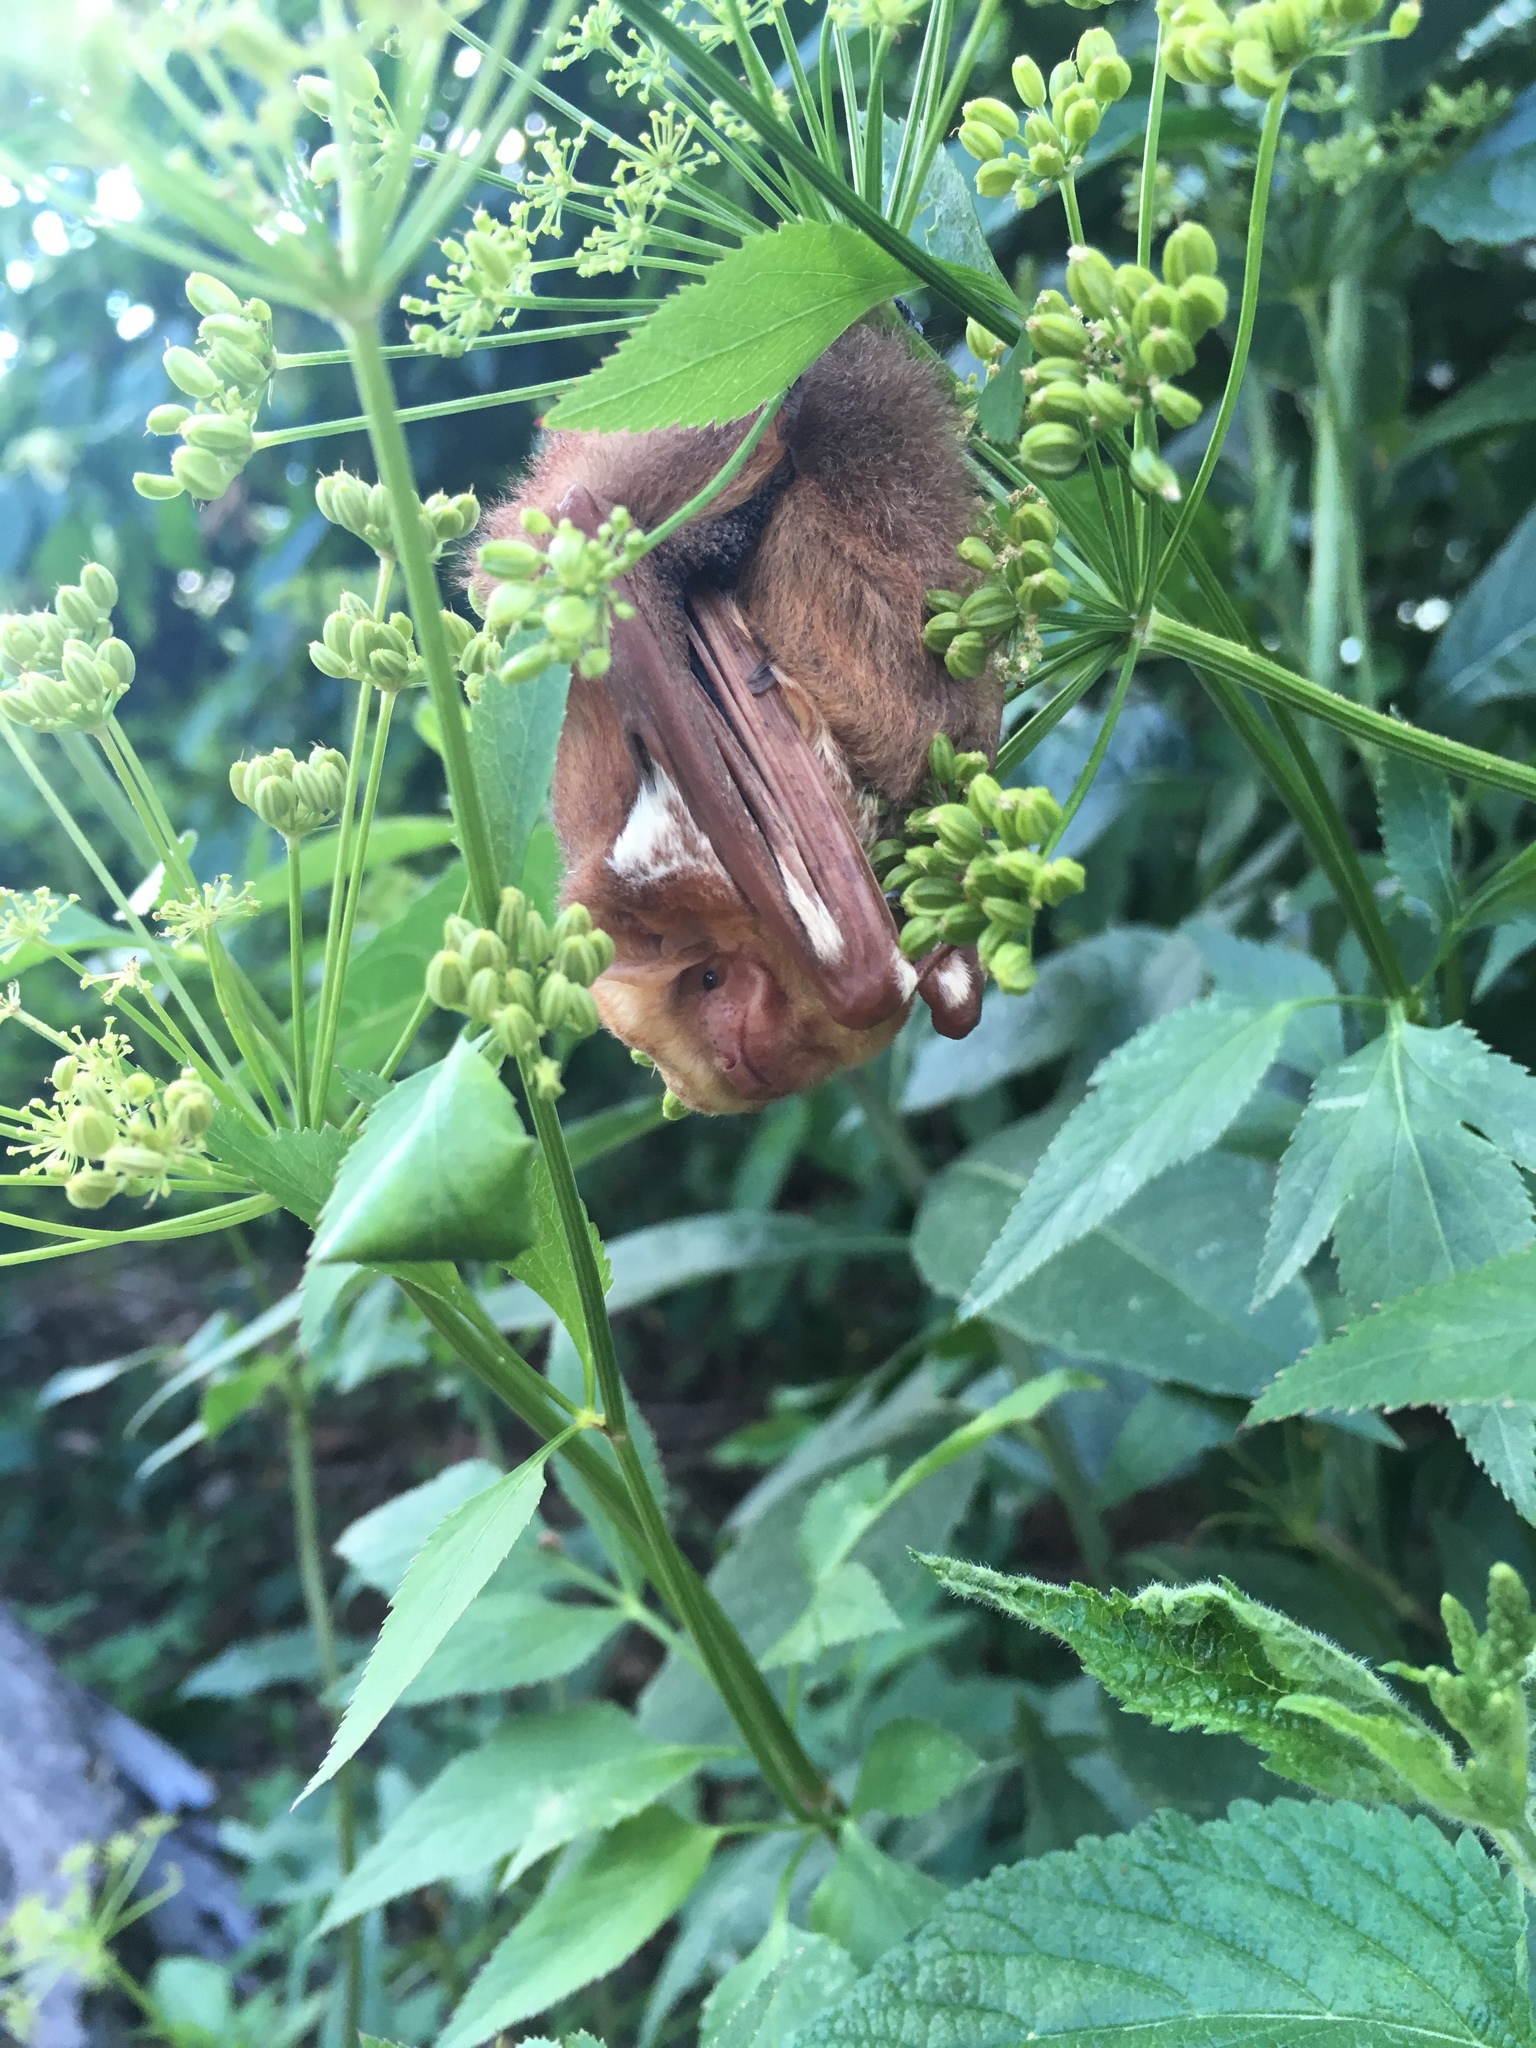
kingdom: Animalia
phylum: Chordata
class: Mammalia
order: Chiroptera
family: Vespertilionidae
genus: Lasiurus
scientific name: Lasiurus borealis
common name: Eastern red bat
